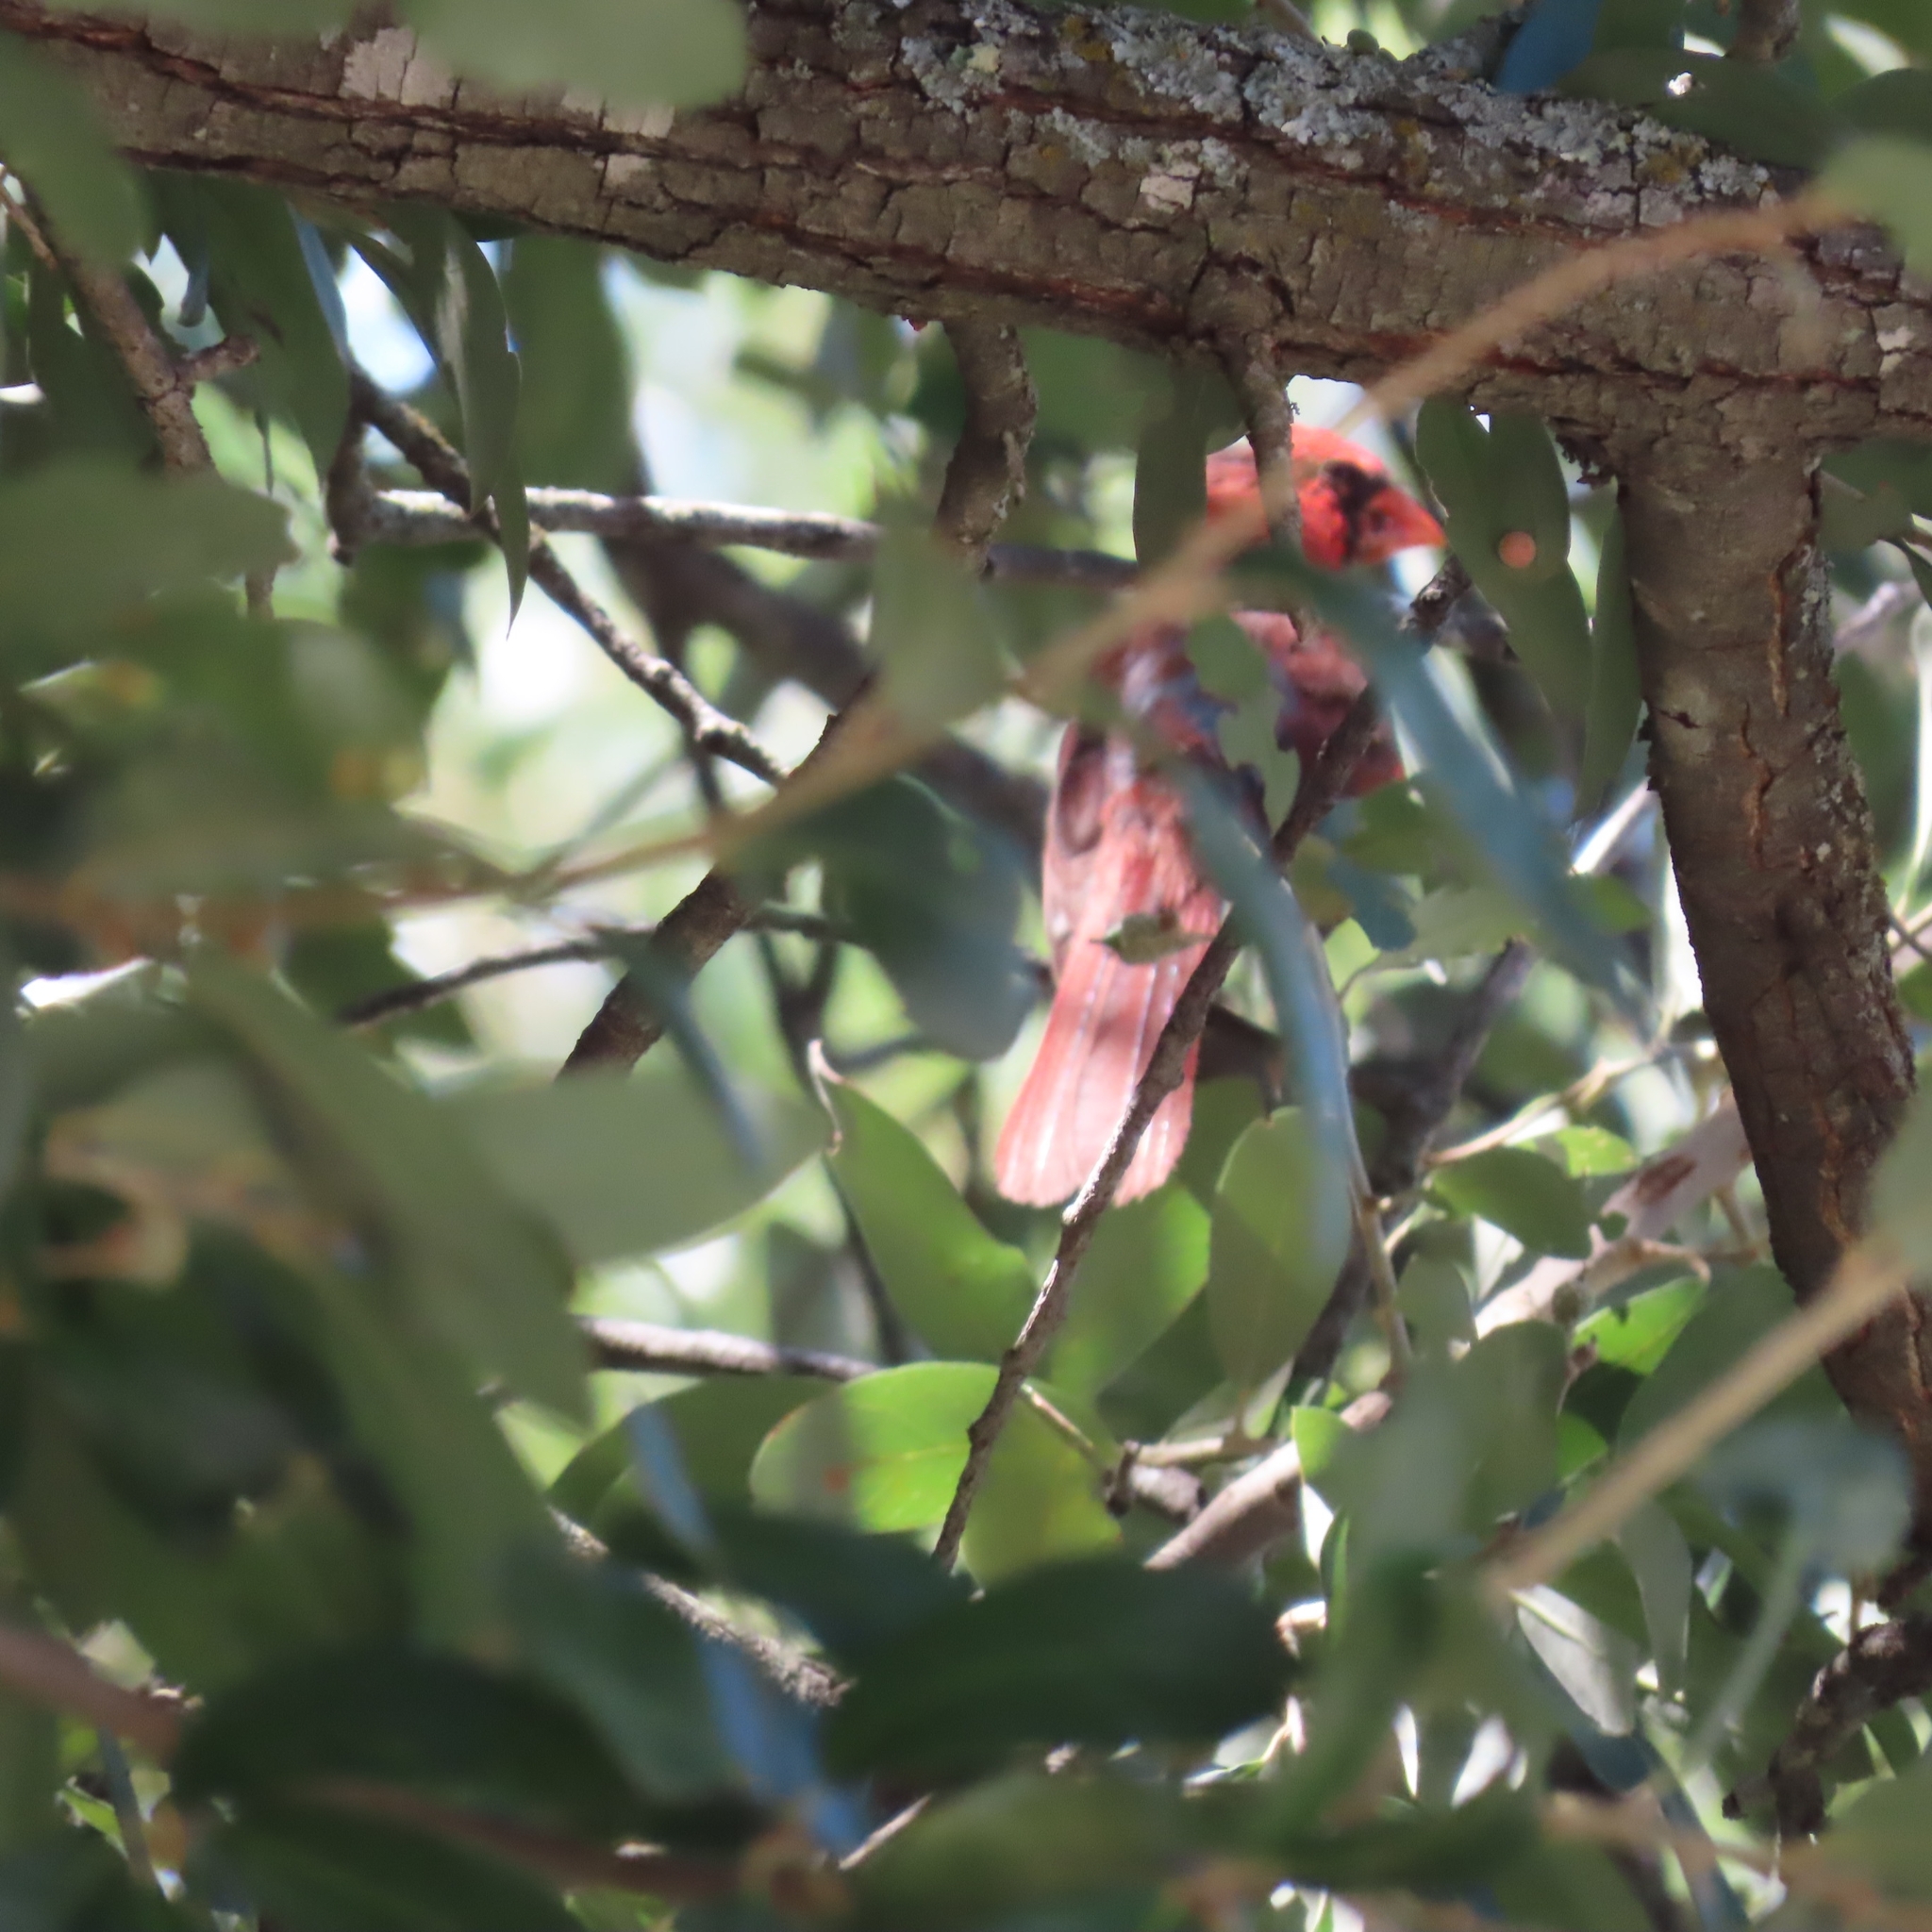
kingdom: Animalia
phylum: Chordata
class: Aves
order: Passeriformes
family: Cardinalidae
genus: Cardinalis
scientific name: Cardinalis cardinalis
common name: Northern cardinal
